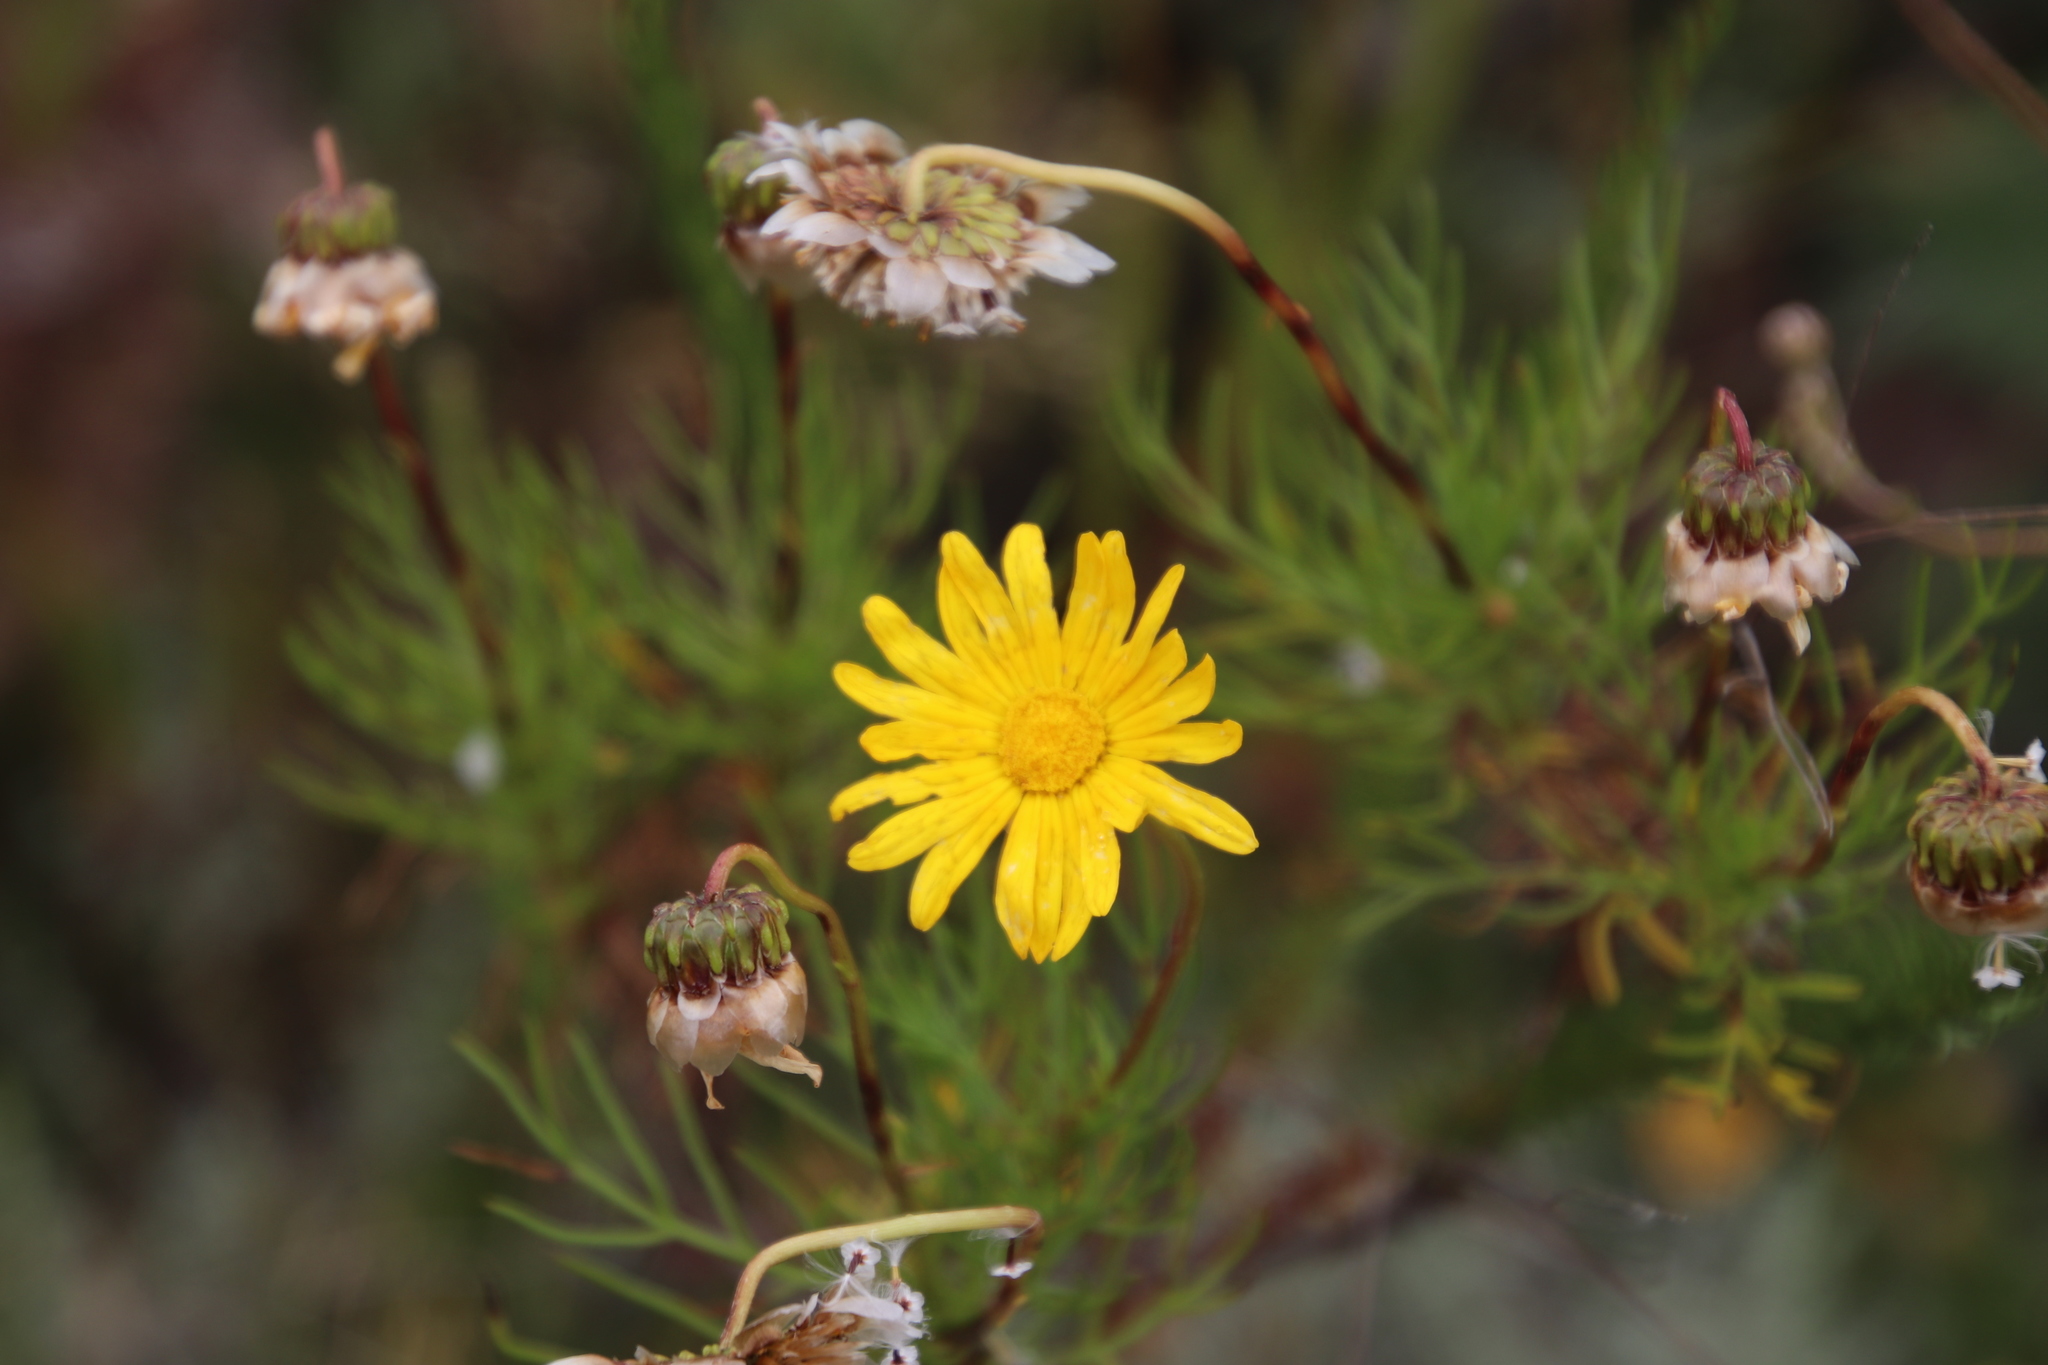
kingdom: Plantae
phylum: Tracheophyta
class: Magnoliopsida
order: Asterales
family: Asteraceae
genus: Euryops
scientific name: Euryops abrotanifolius
